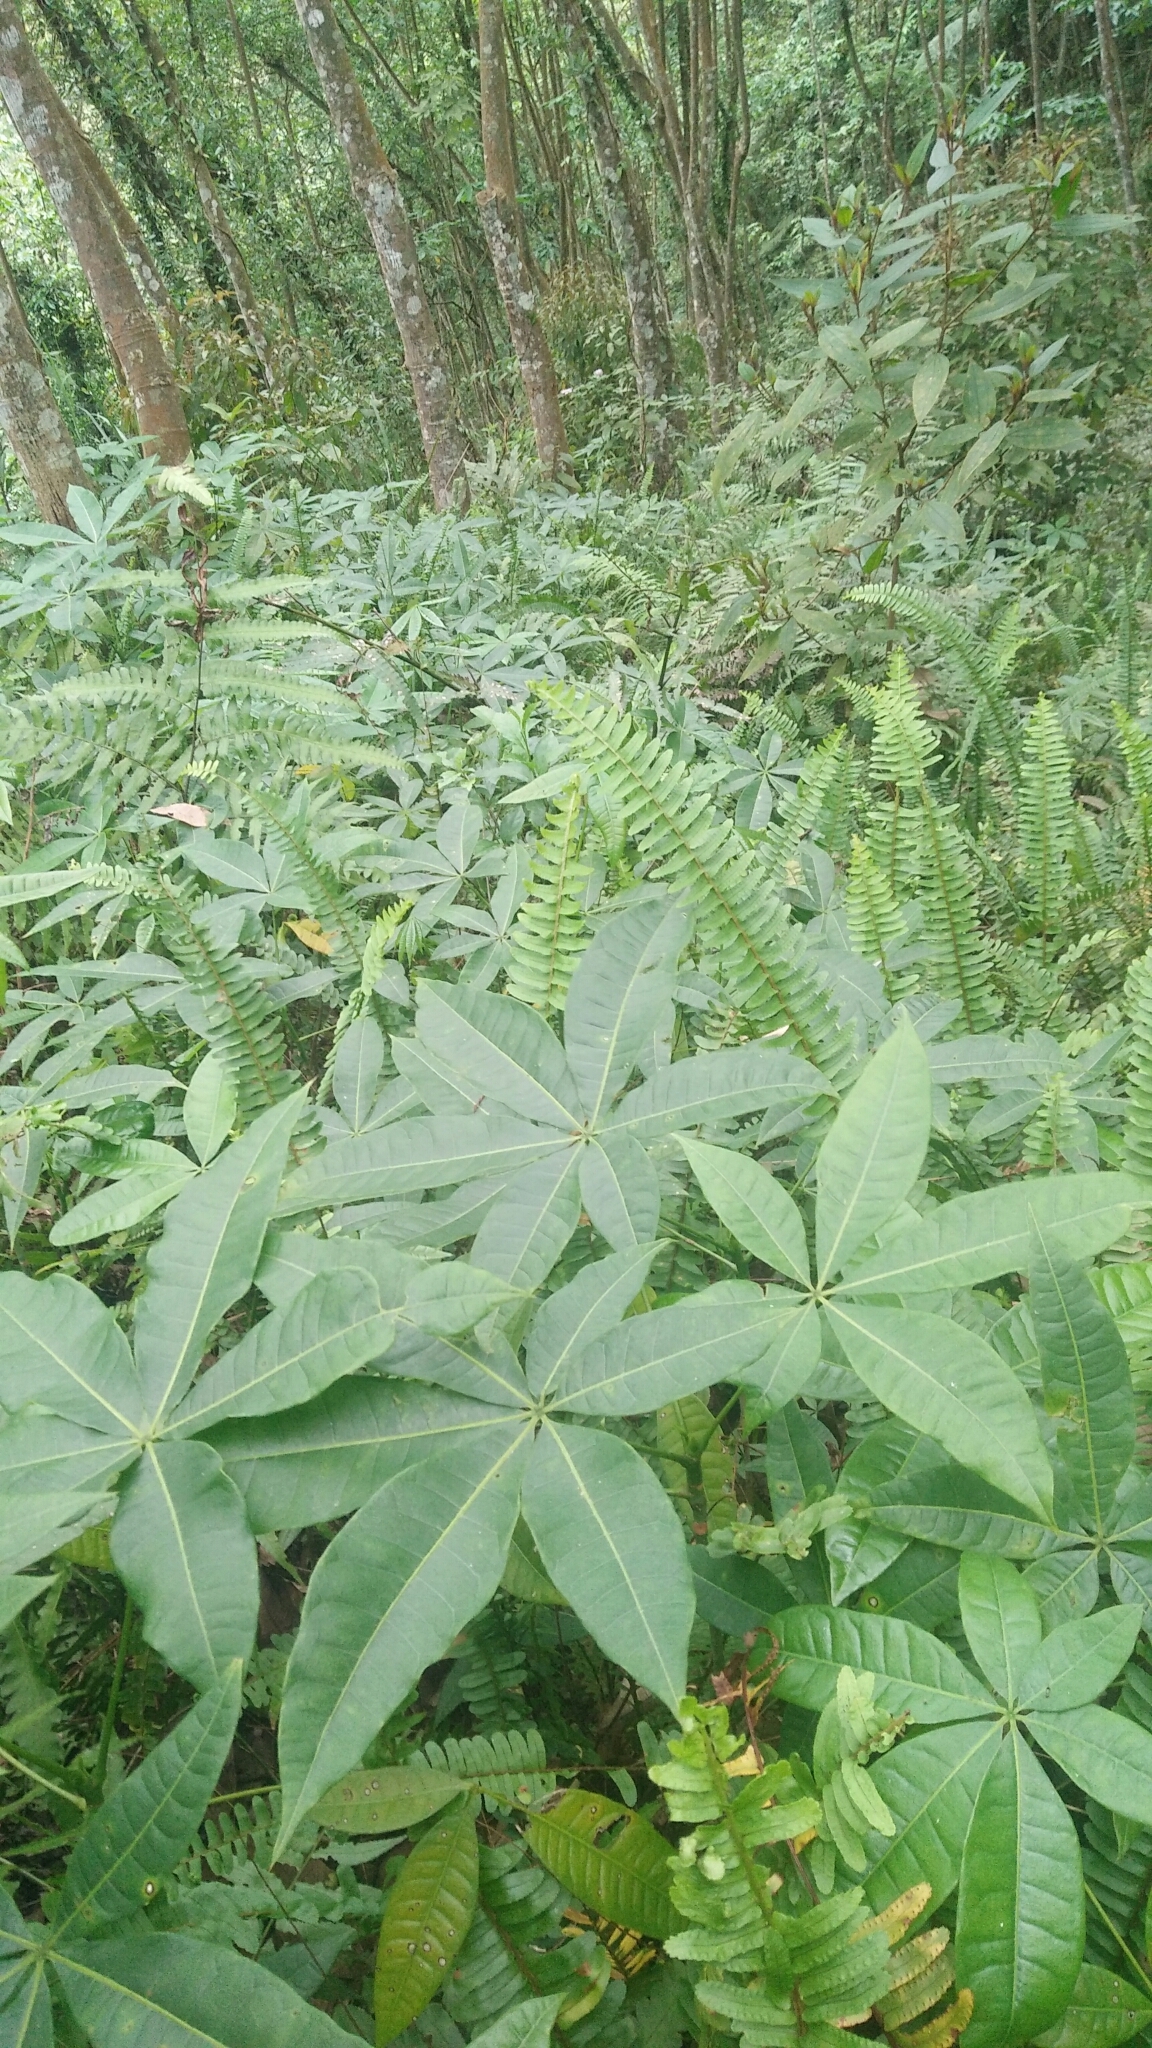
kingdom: Plantae
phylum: Tracheophyta
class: Magnoliopsida
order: Malvales
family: Malvaceae
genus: Pachira
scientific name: Pachira glabra
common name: Moneytree
